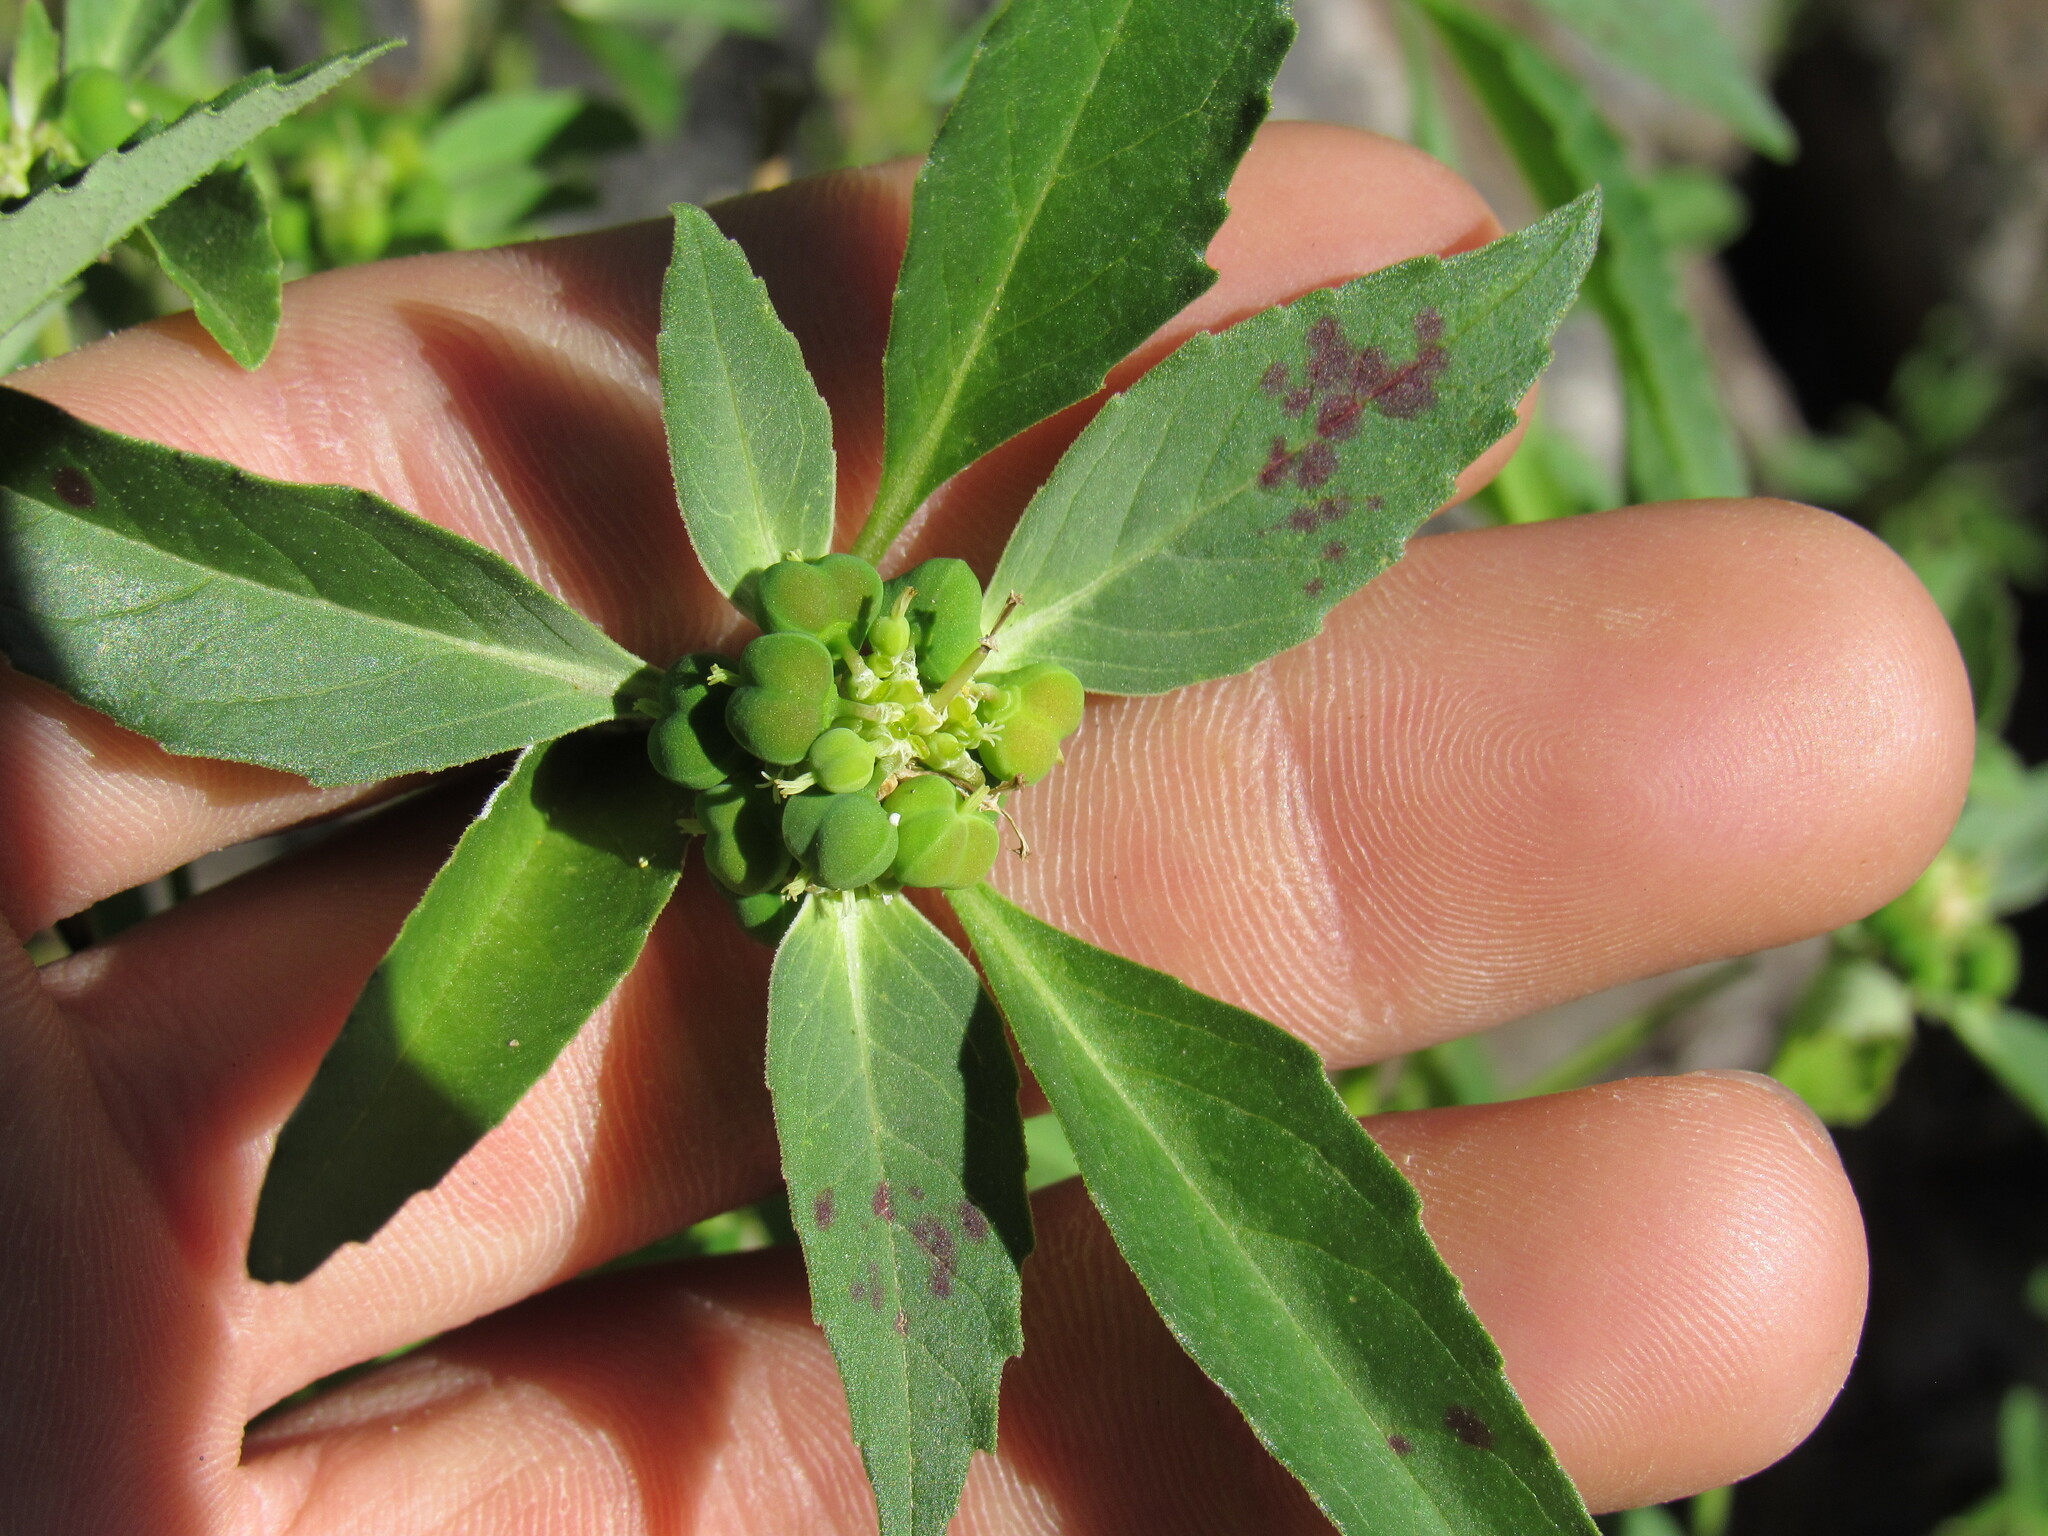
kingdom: Plantae
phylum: Tracheophyta
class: Magnoliopsida
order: Malpighiales
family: Euphorbiaceae
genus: Euphorbia
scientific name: Euphorbia davidii
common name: David's spurge
